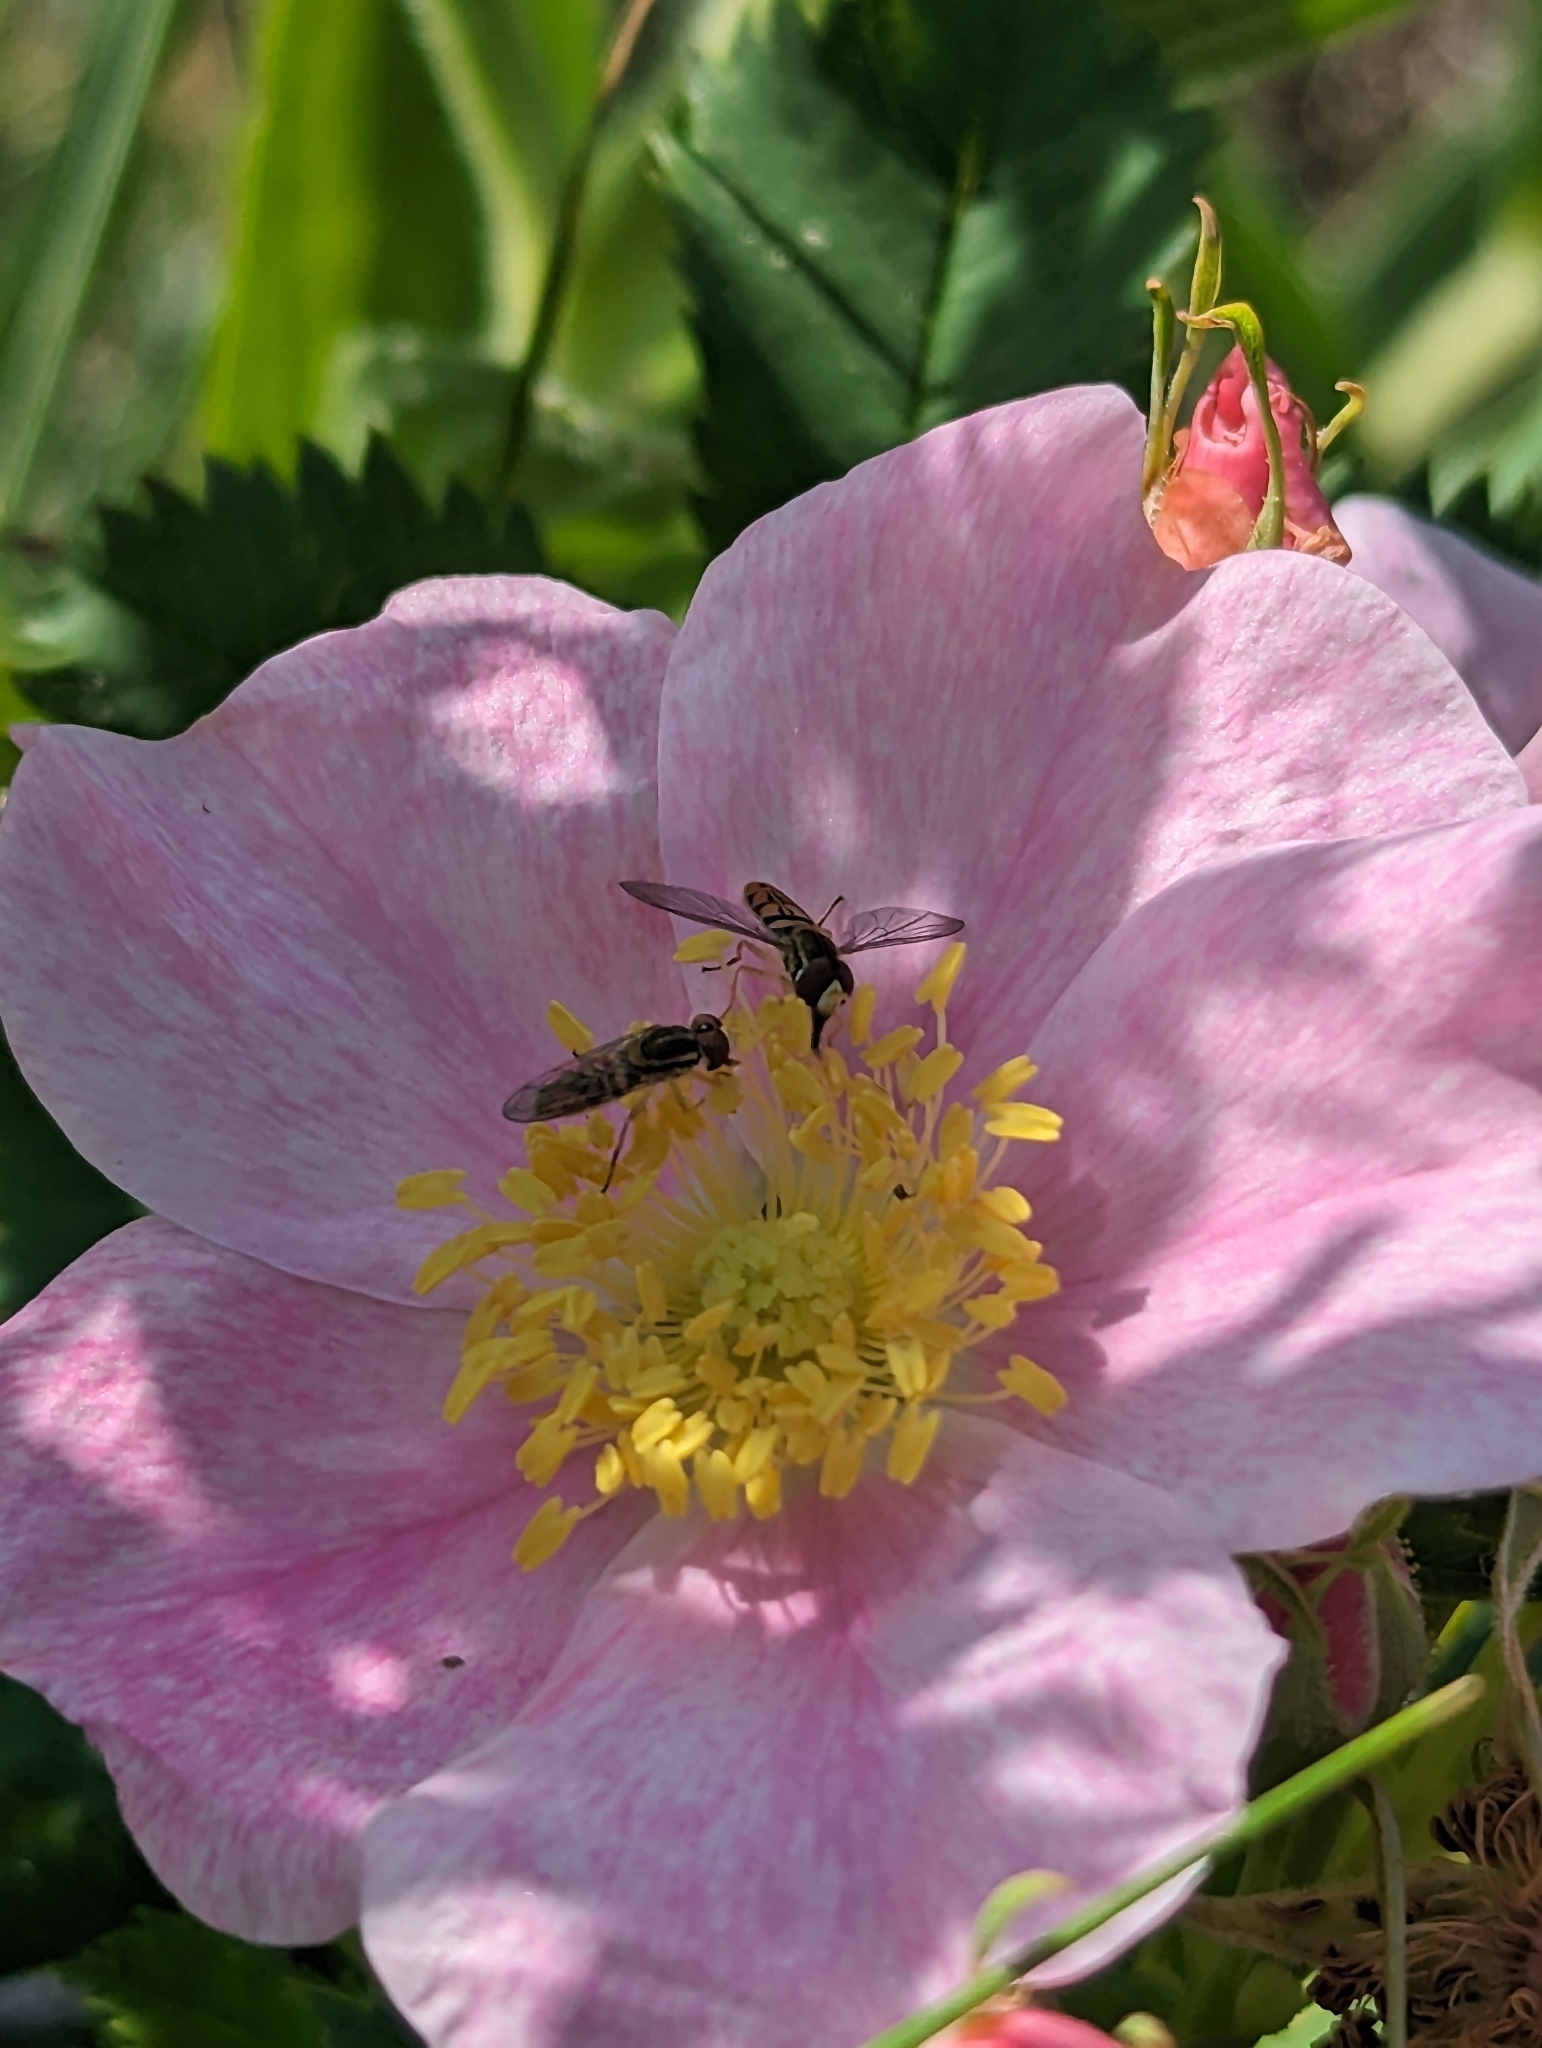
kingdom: Animalia
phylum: Arthropoda
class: Insecta
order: Diptera
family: Syrphidae
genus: Toxomerus
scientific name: Toxomerus marginatus
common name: Syrphid fly
